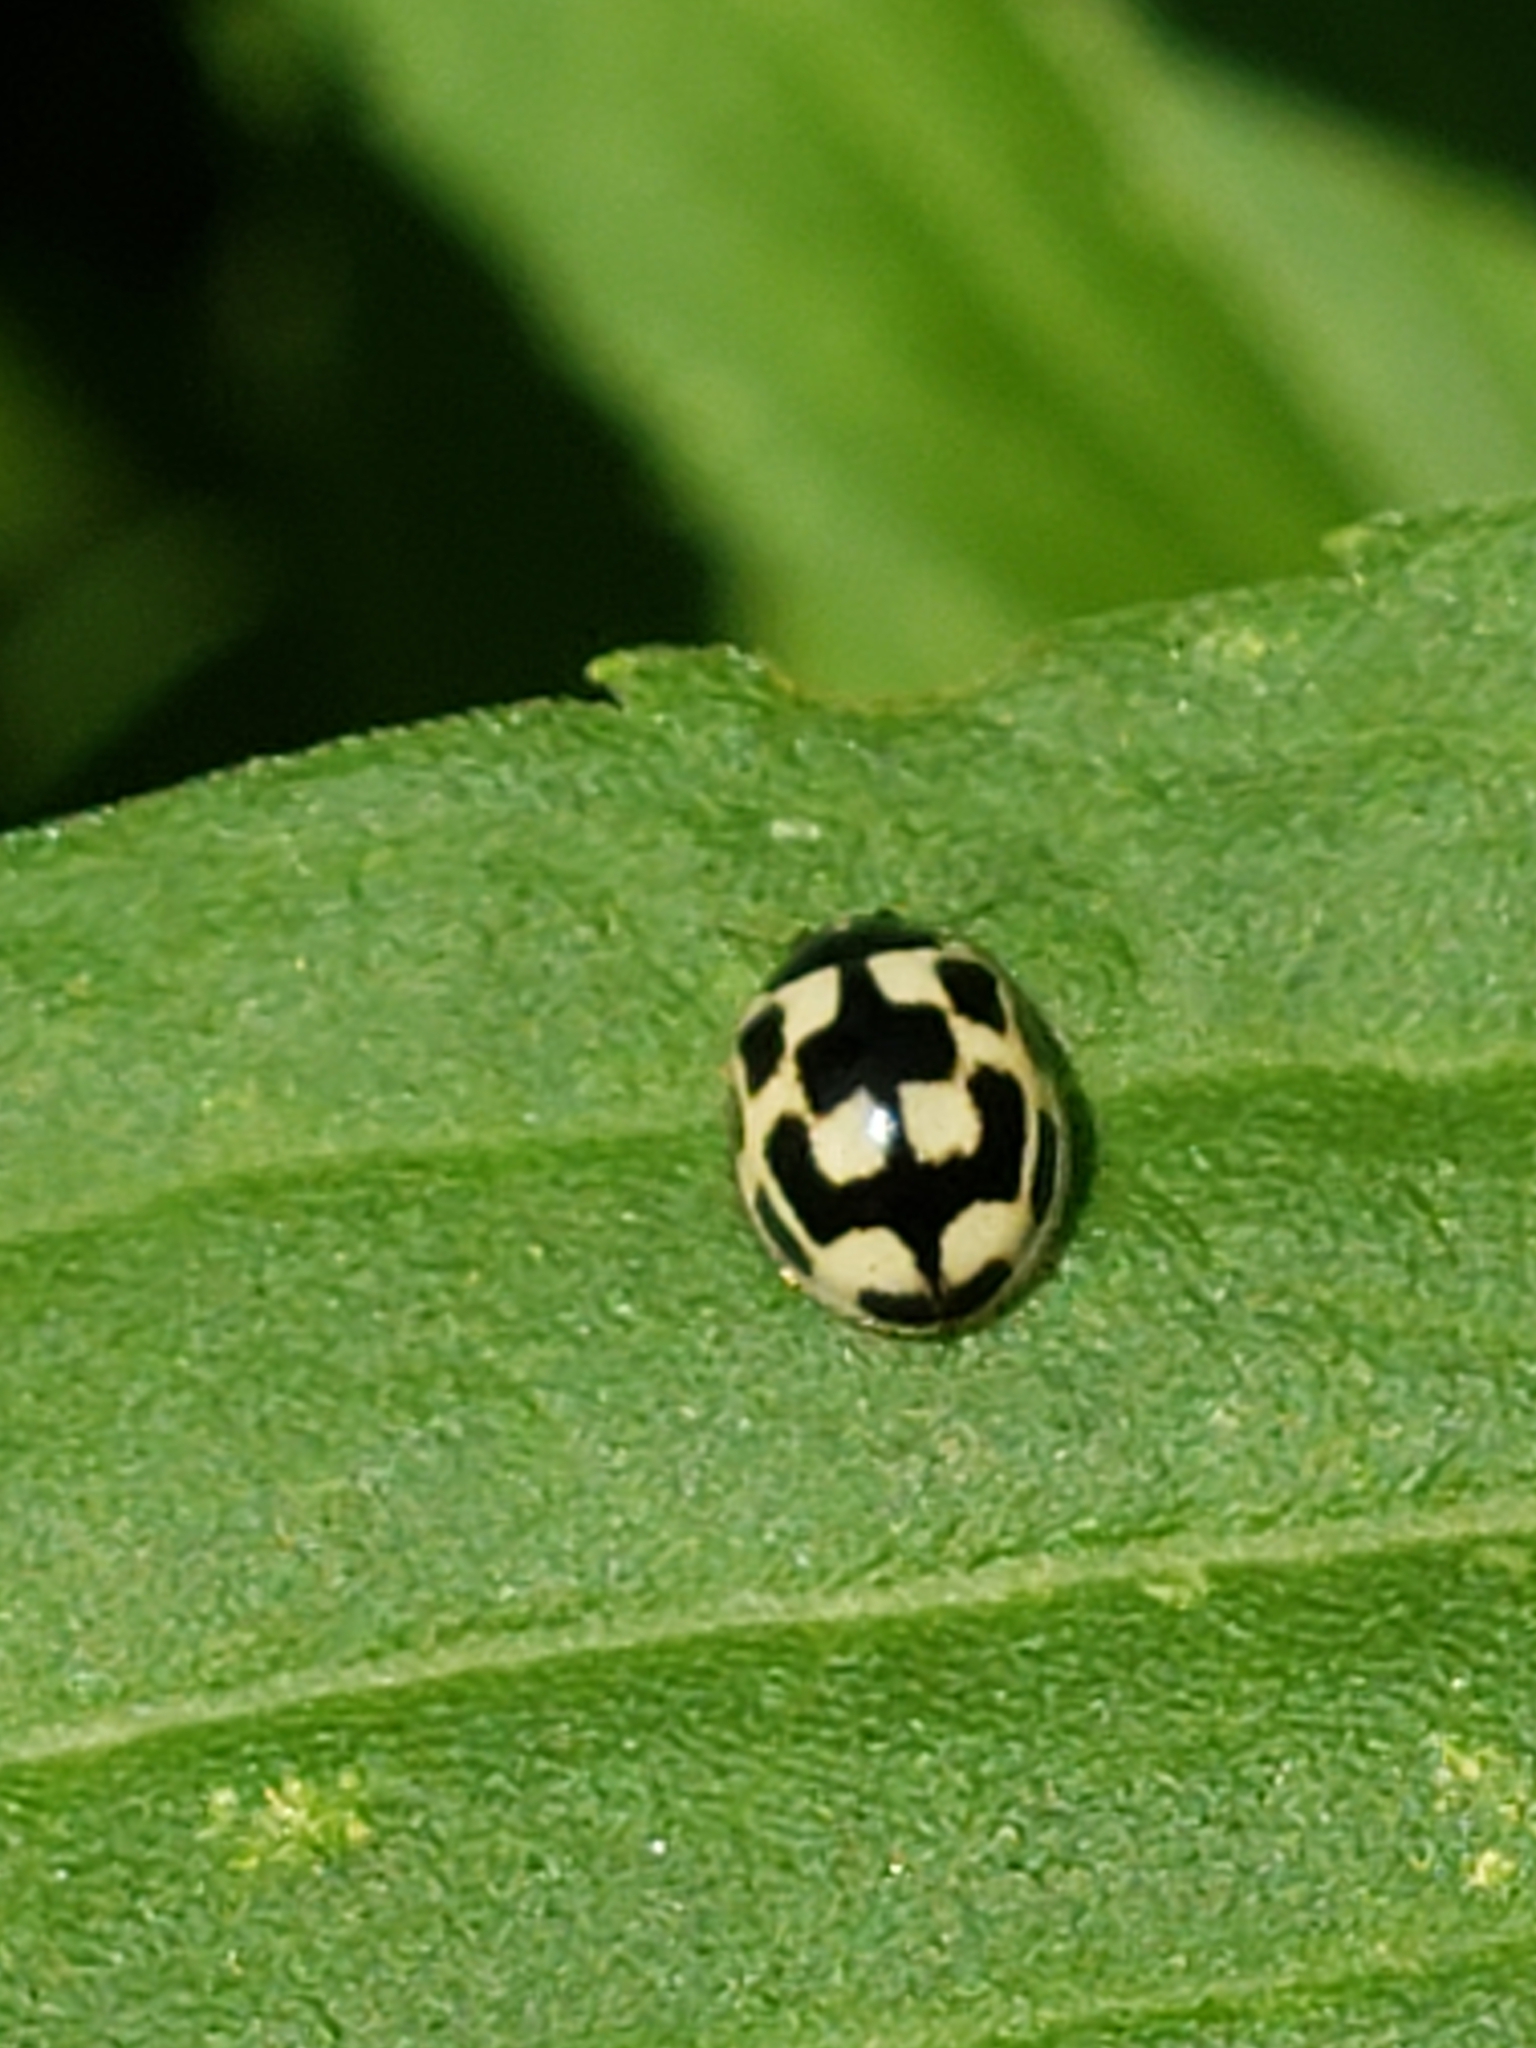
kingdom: Animalia
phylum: Arthropoda
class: Insecta
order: Coleoptera
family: Coccinellidae
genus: Propylaea
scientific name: Propylaea quatuordecimpunctata
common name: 14-spotted ladybird beetle
